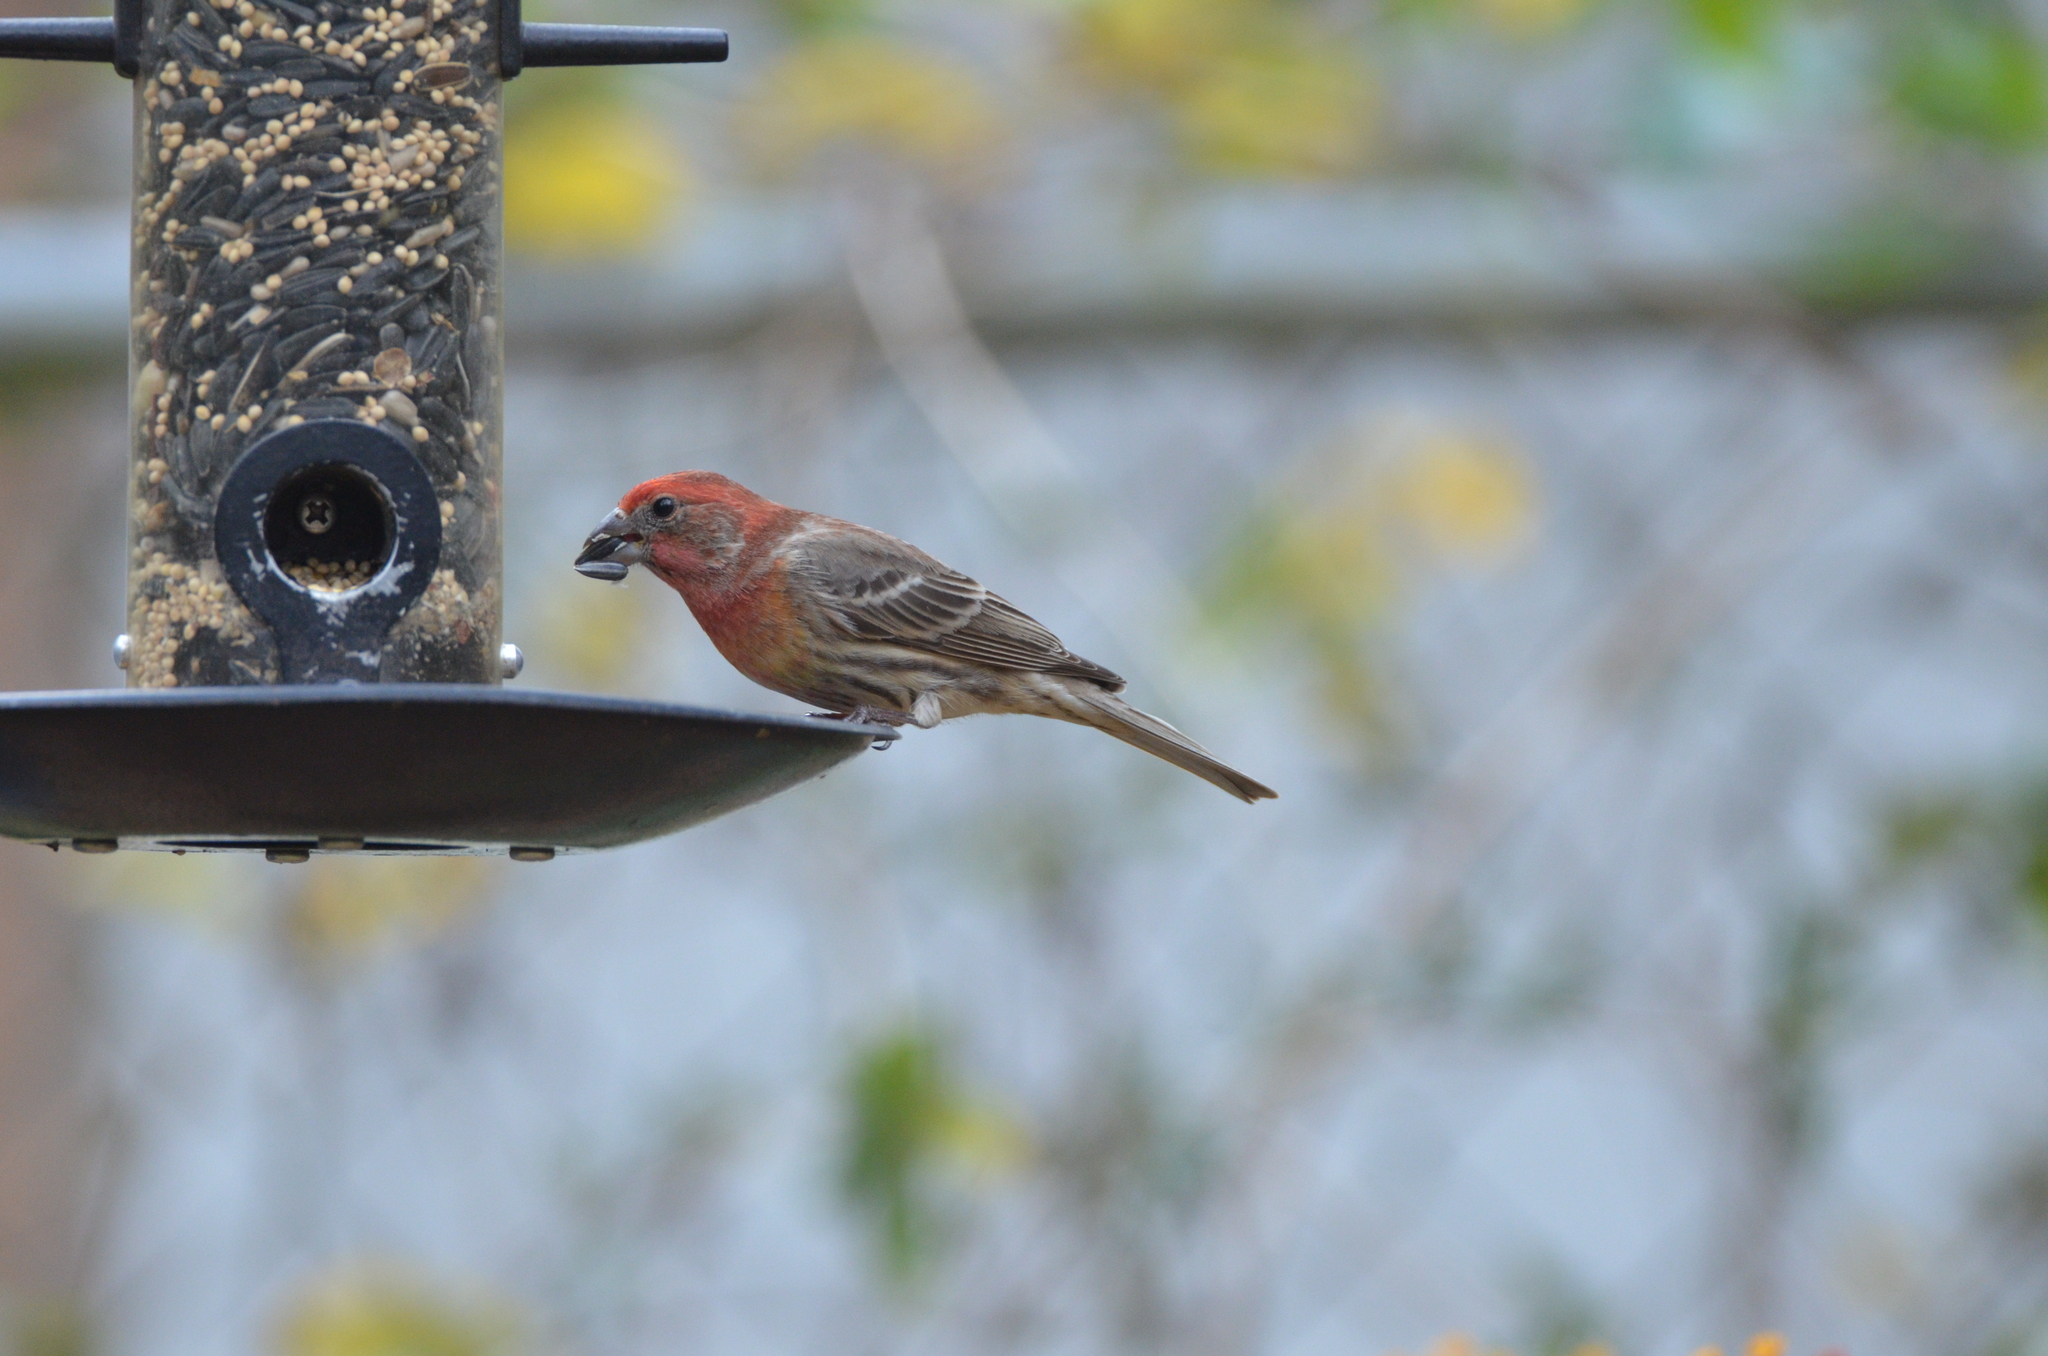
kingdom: Animalia
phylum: Chordata
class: Aves
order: Passeriformes
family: Fringillidae
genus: Haemorhous
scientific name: Haemorhous mexicanus
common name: House finch
